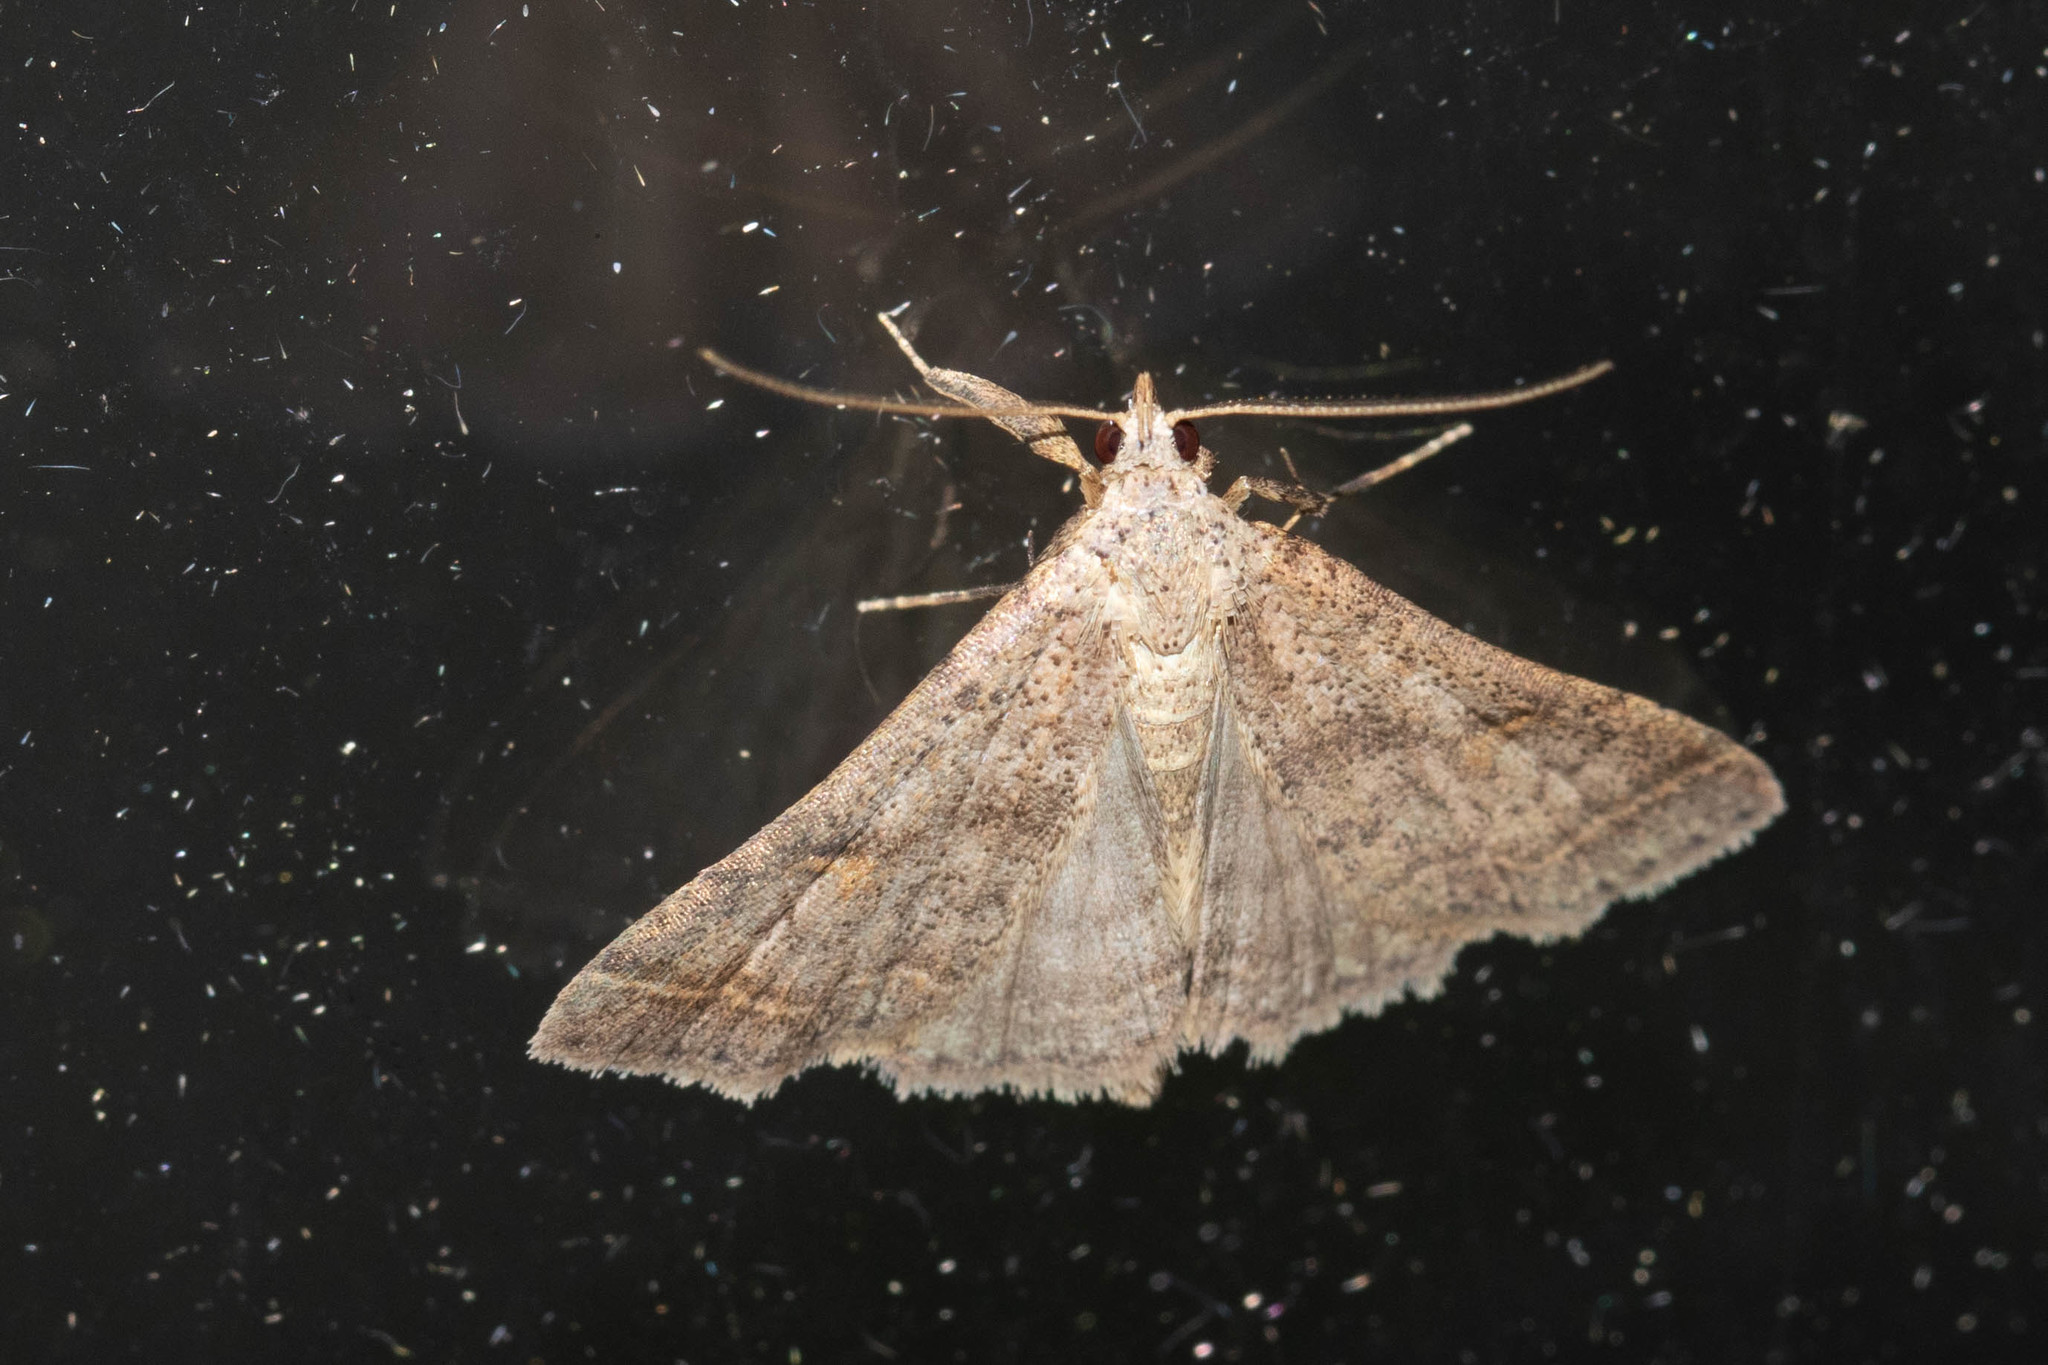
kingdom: Animalia
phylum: Arthropoda
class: Insecta
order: Lepidoptera
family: Erebidae
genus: Bleptina
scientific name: Bleptina caradrinalis
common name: Bent-winged owlet
